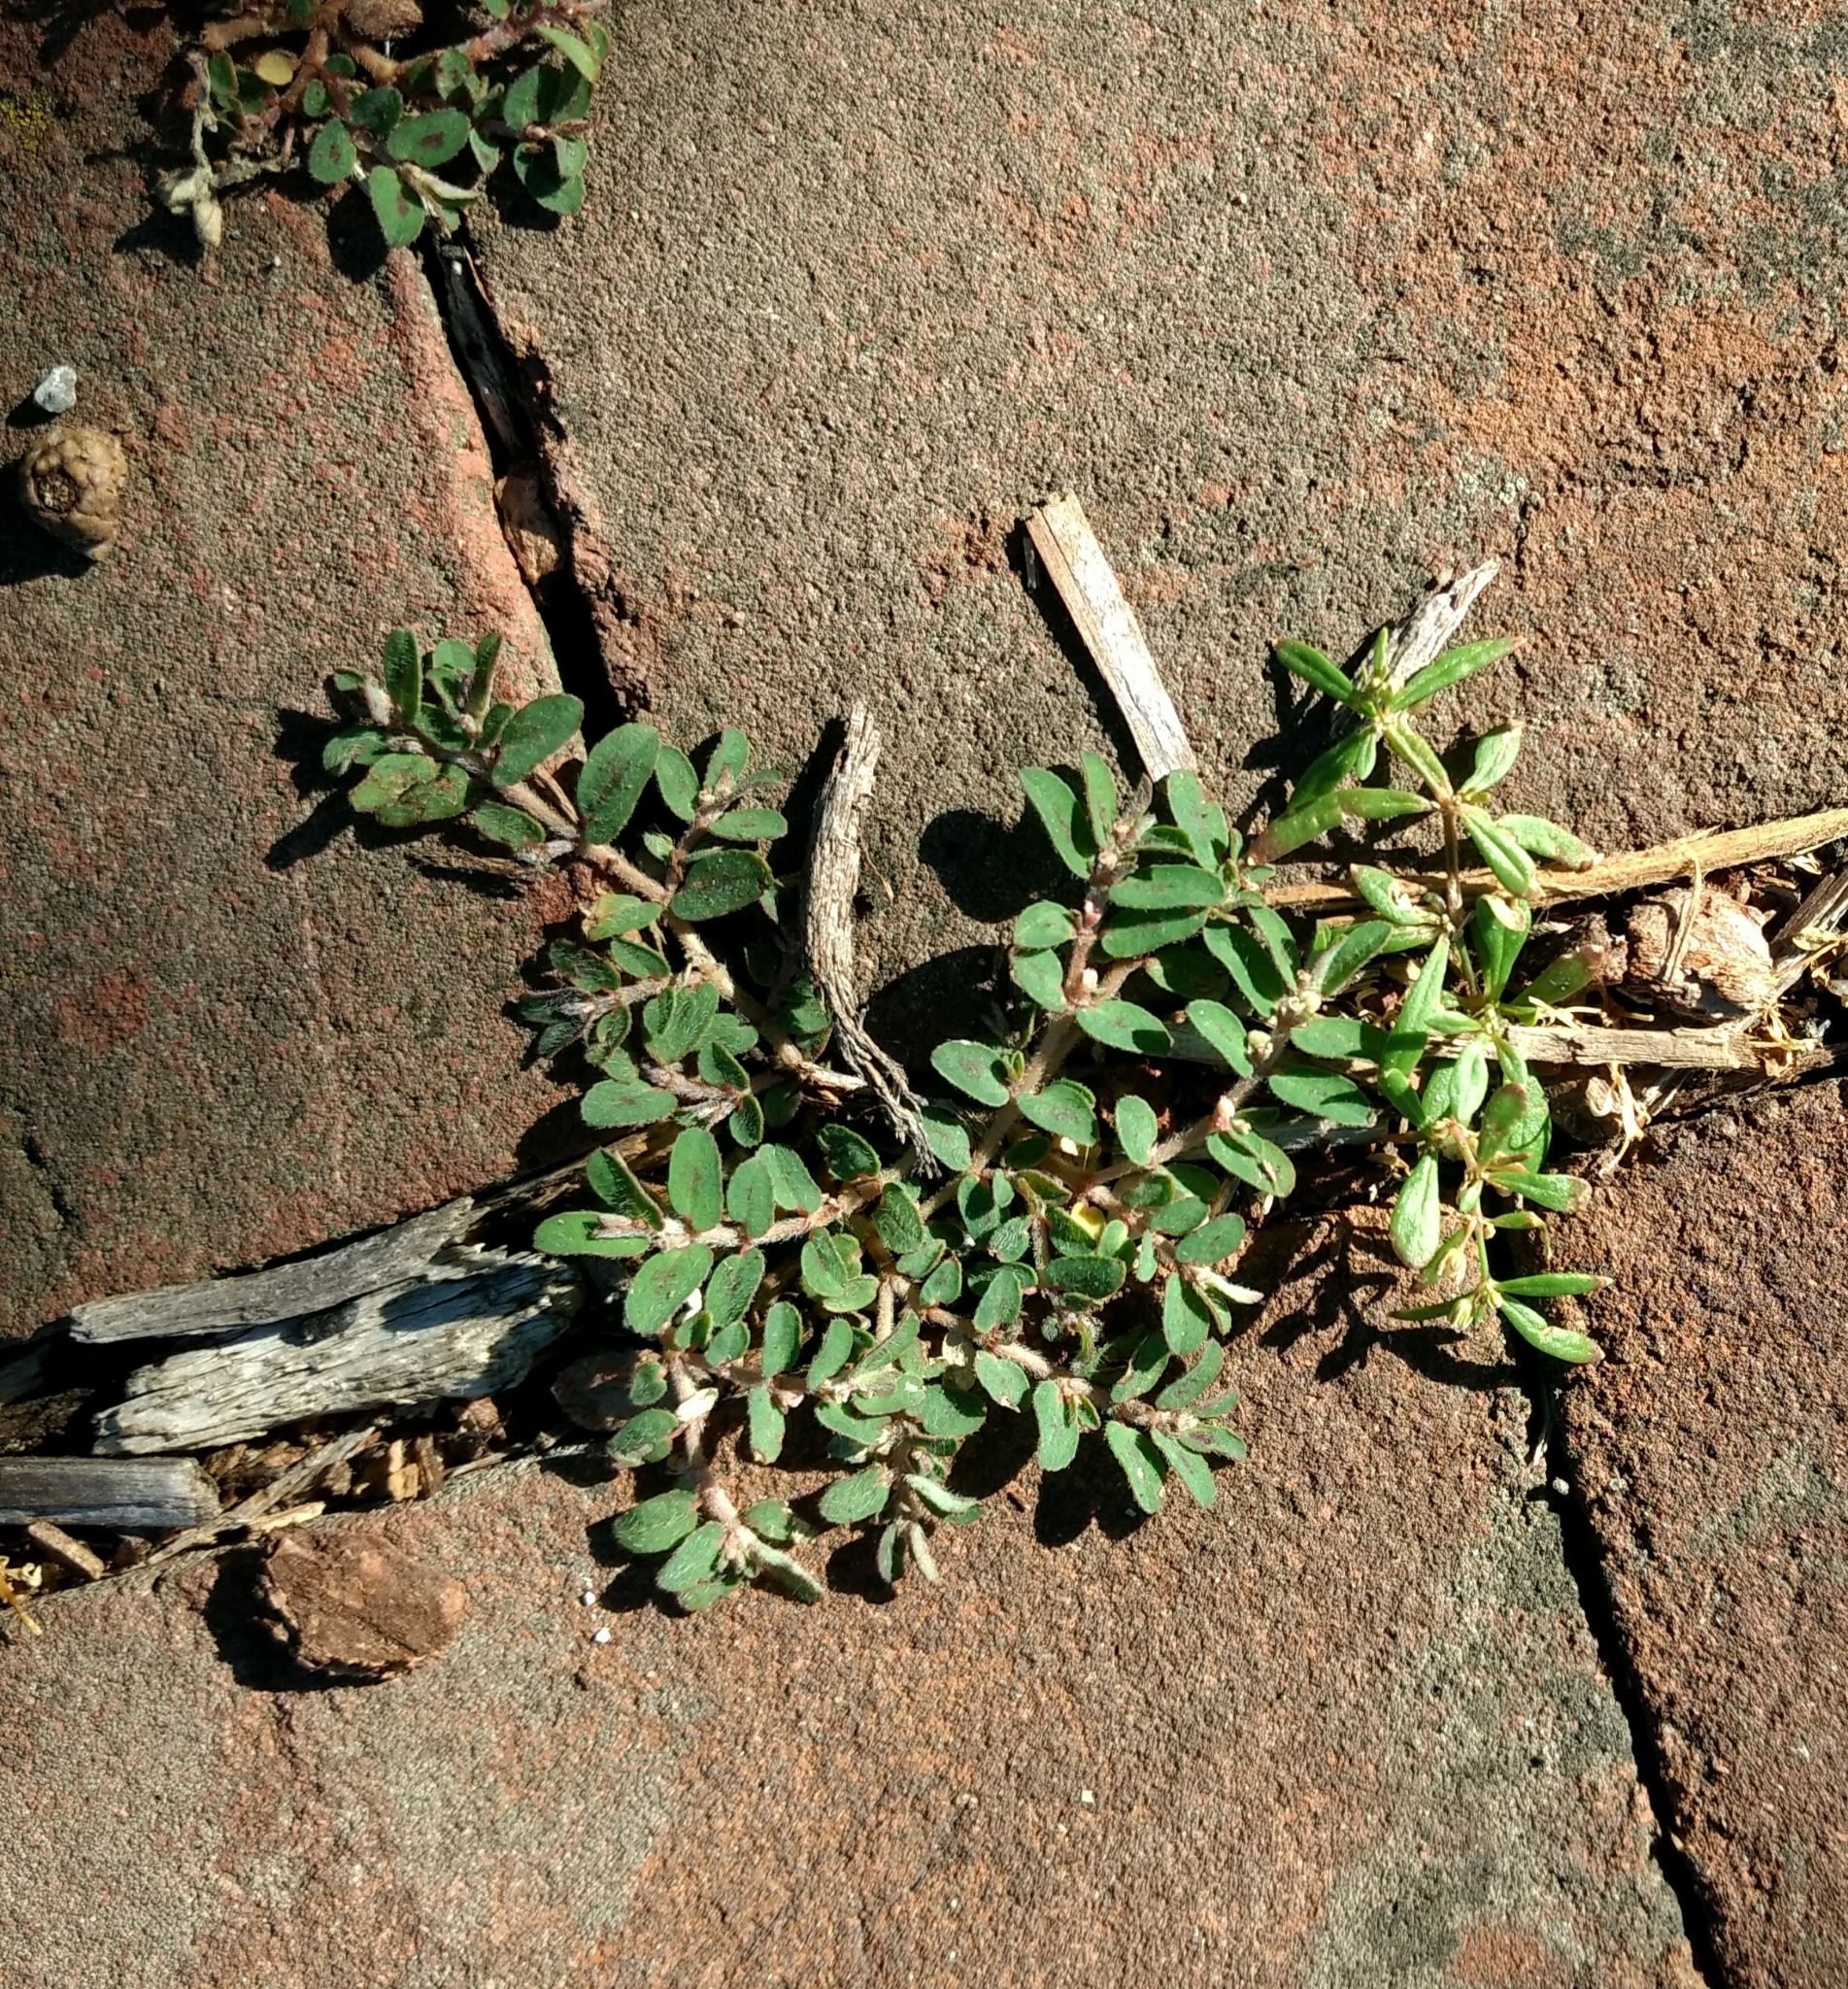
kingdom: Plantae
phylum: Tracheophyta
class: Magnoliopsida
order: Malpighiales
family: Euphorbiaceae
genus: Euphorbia
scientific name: Euphorbia maculata
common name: Spotted spurge
